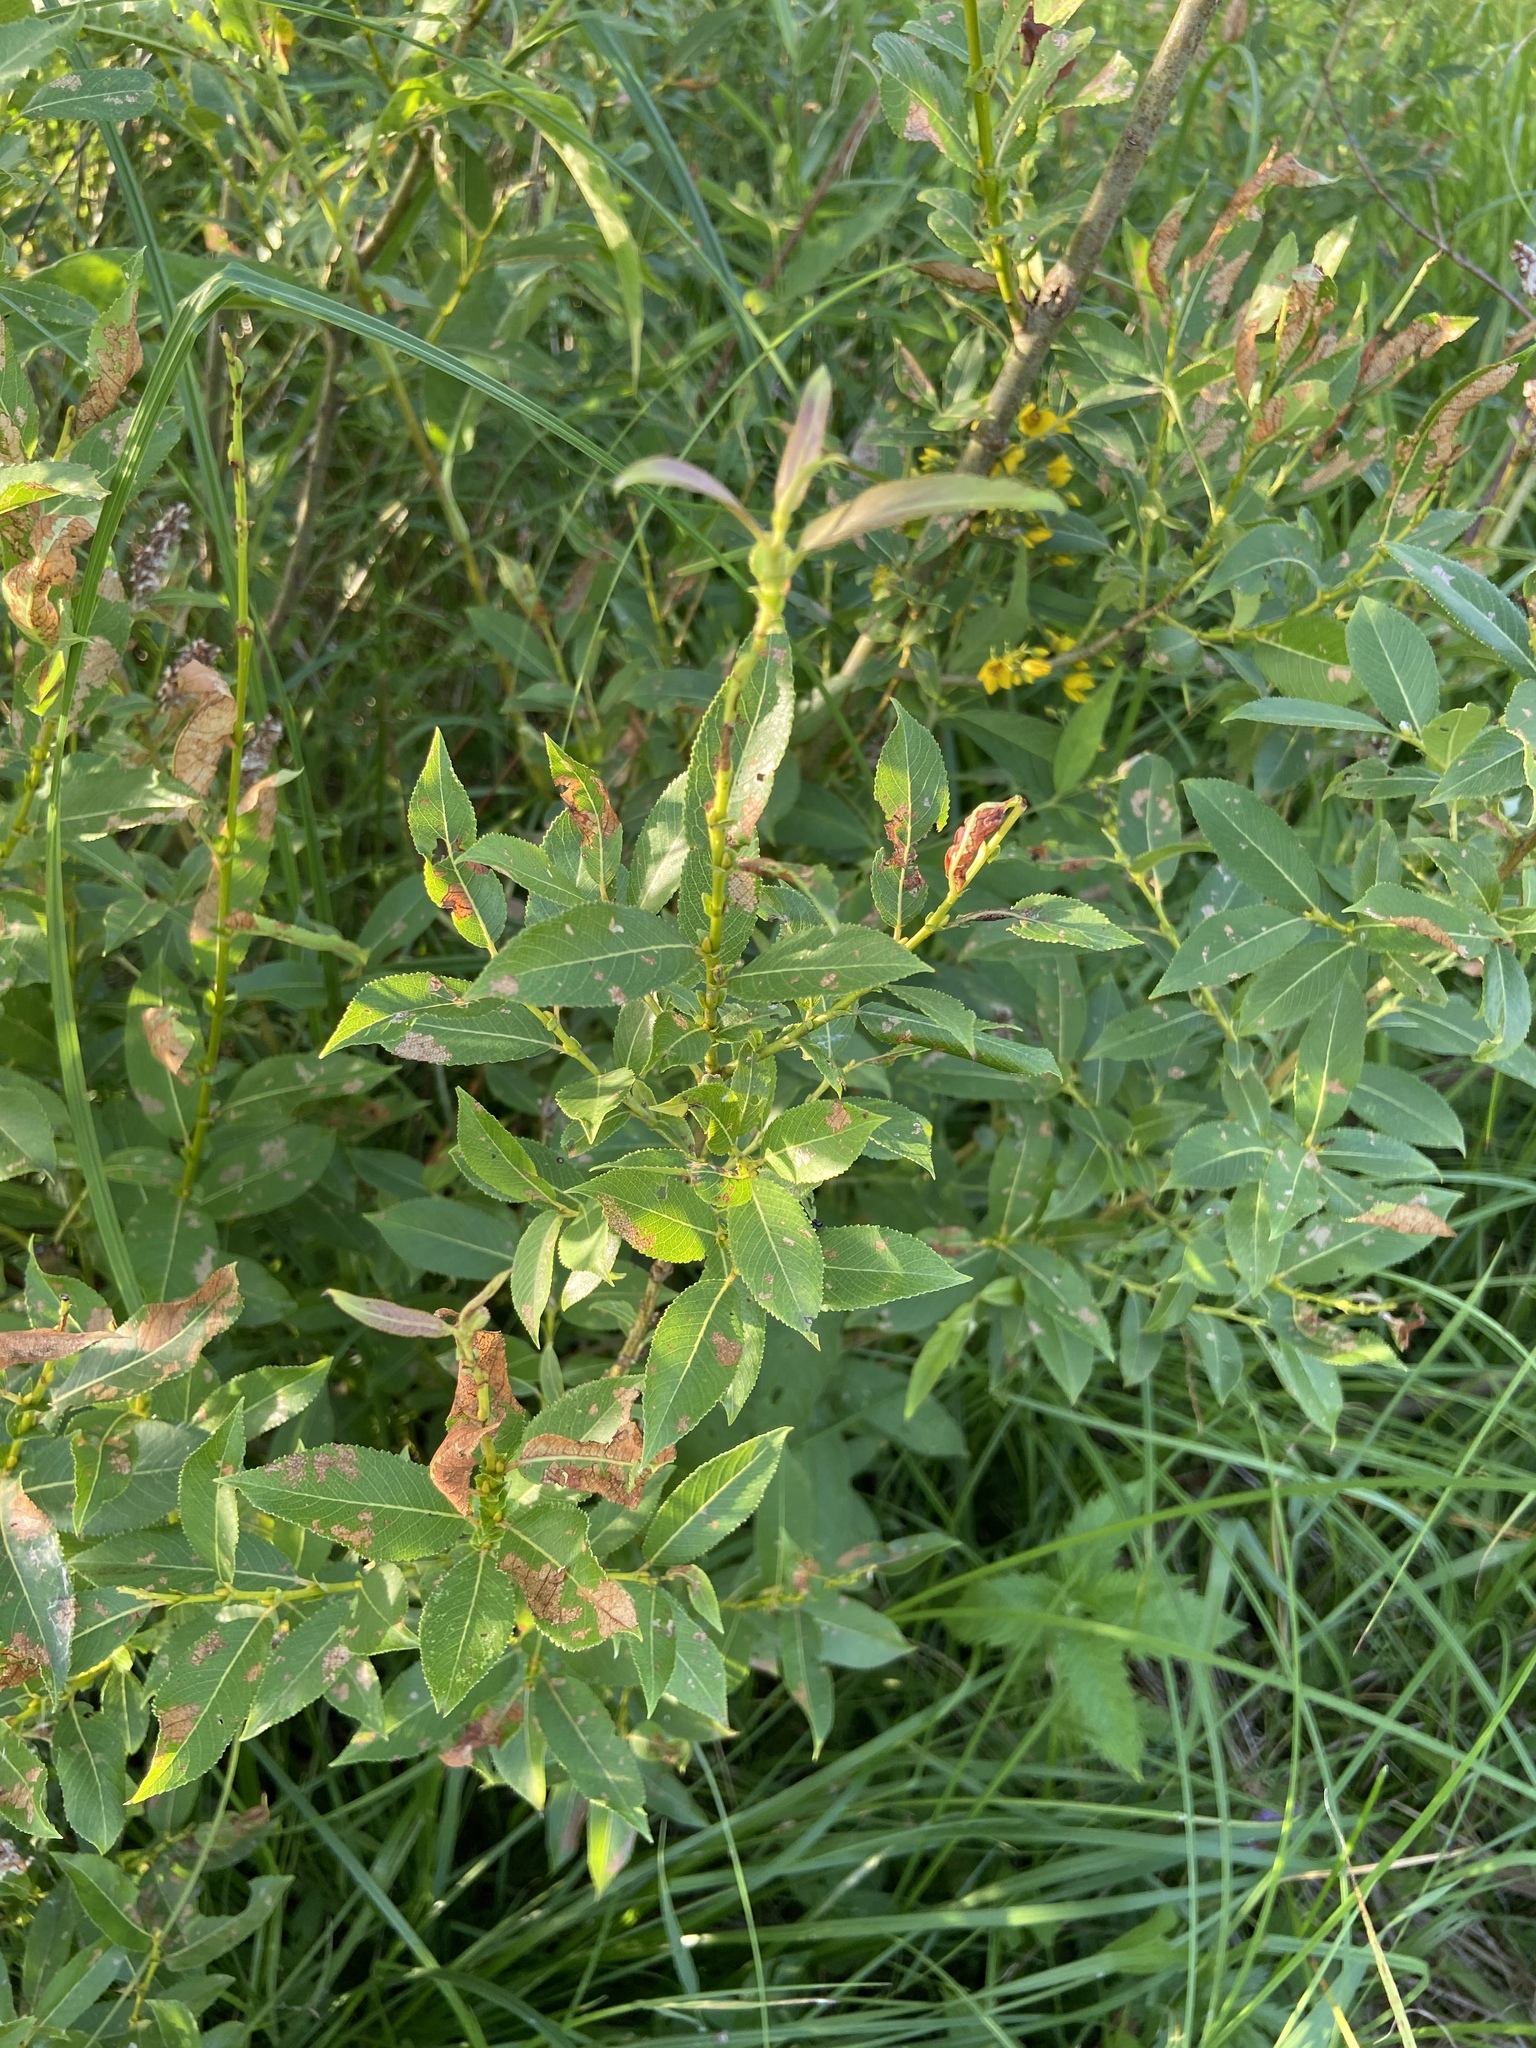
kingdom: Plantae
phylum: Tracheophyta
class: Magnoliopsida
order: Malpighiales
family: Salicaceae
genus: Salix
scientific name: Salix triandra
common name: Almond willow
